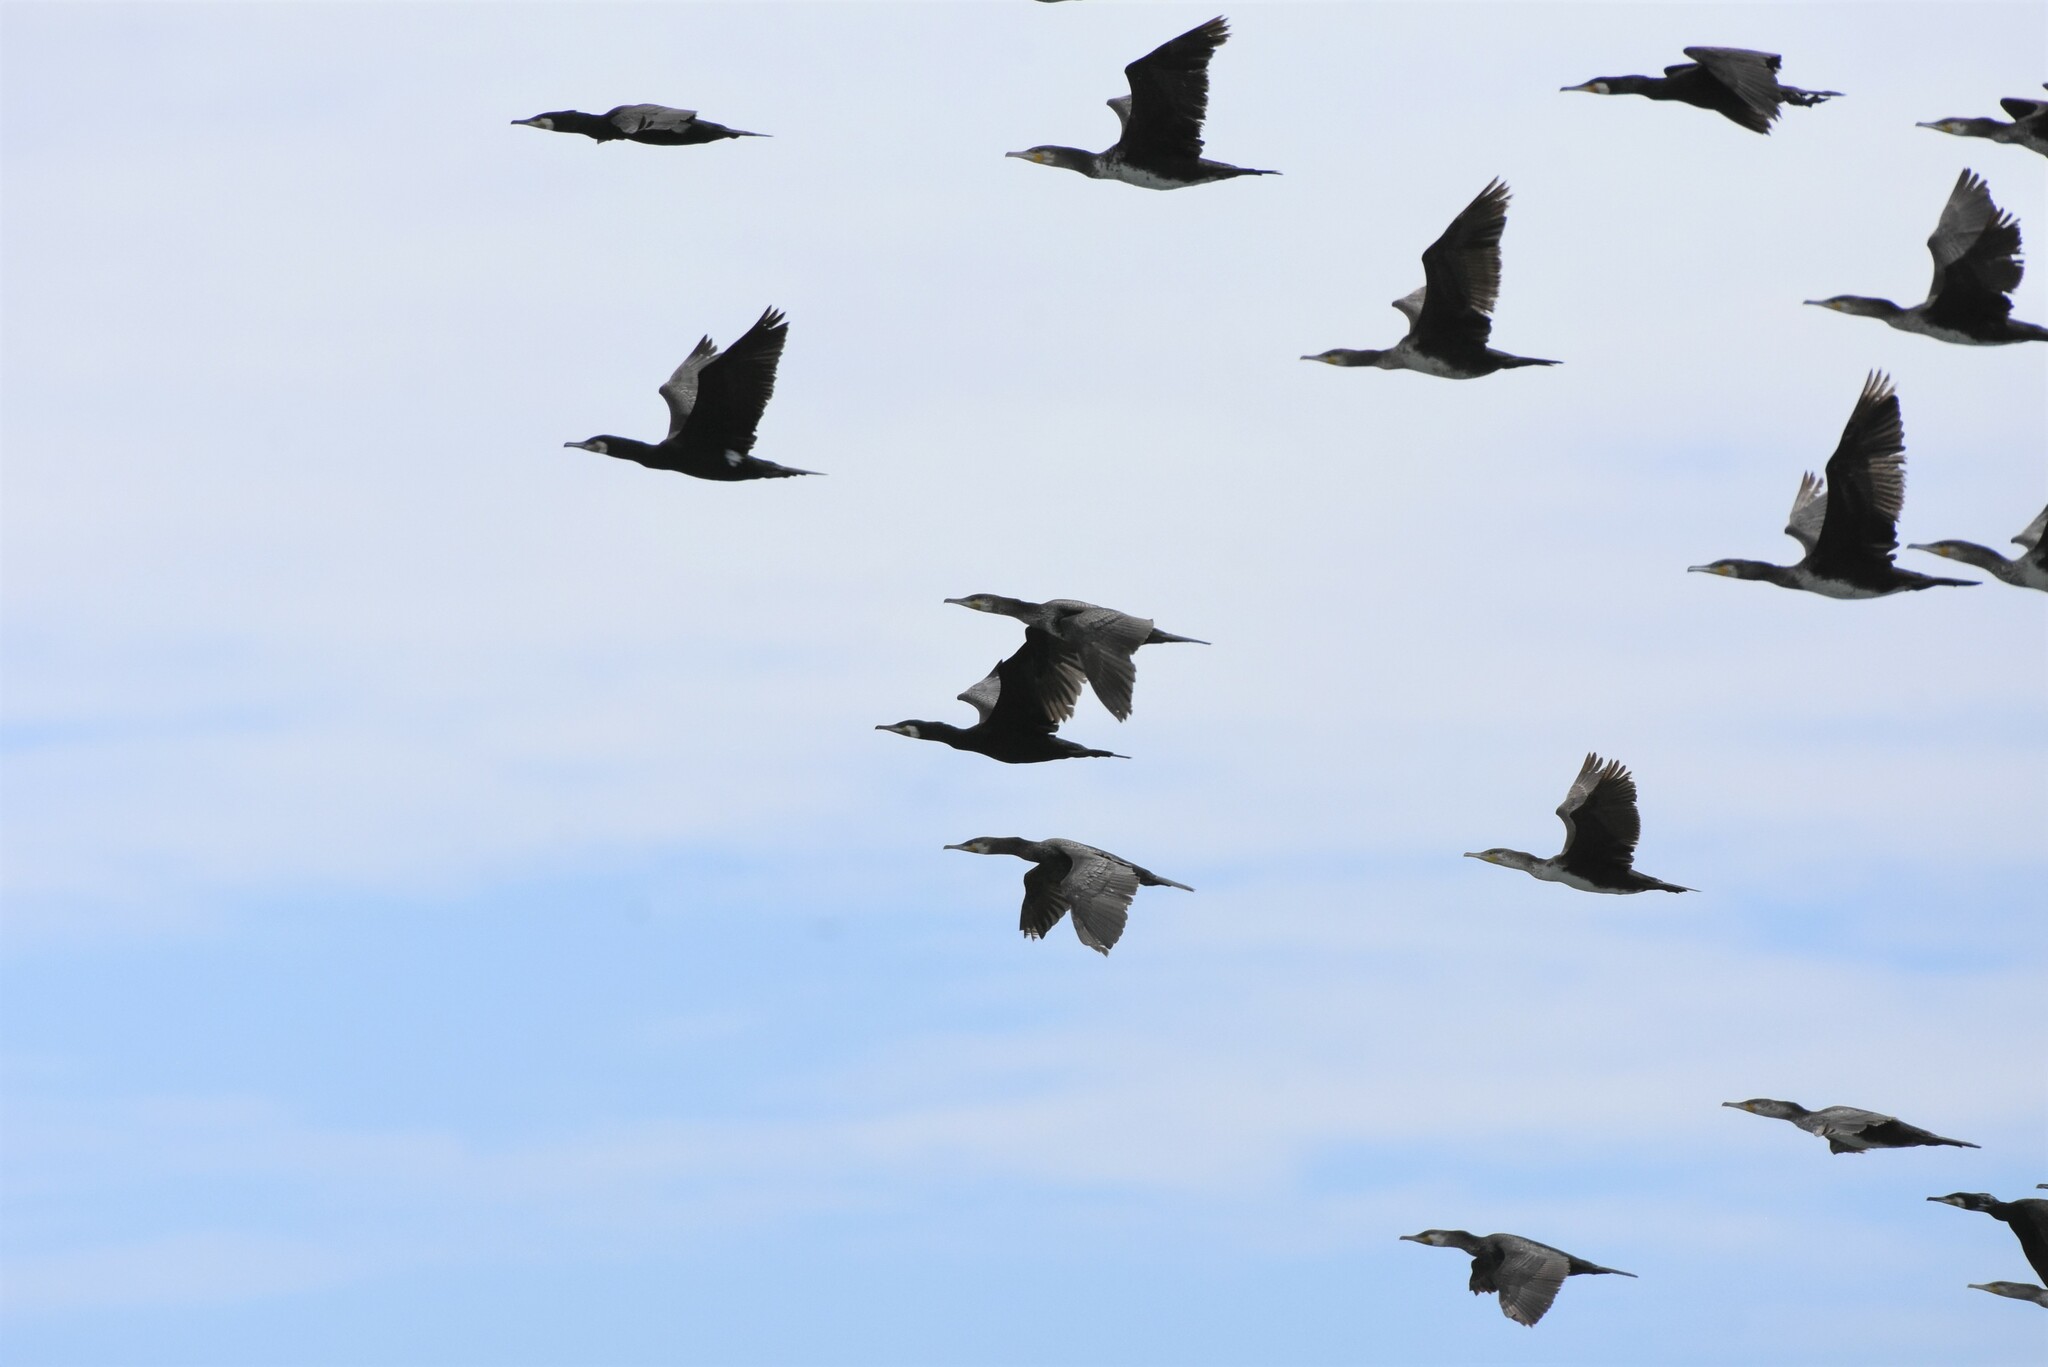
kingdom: Animalia
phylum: Chordata
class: Aves
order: Suliformes
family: Phalacrocoracidae
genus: Phalacrocorax
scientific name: Phalacrocorax carbo
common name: Great cormorant
